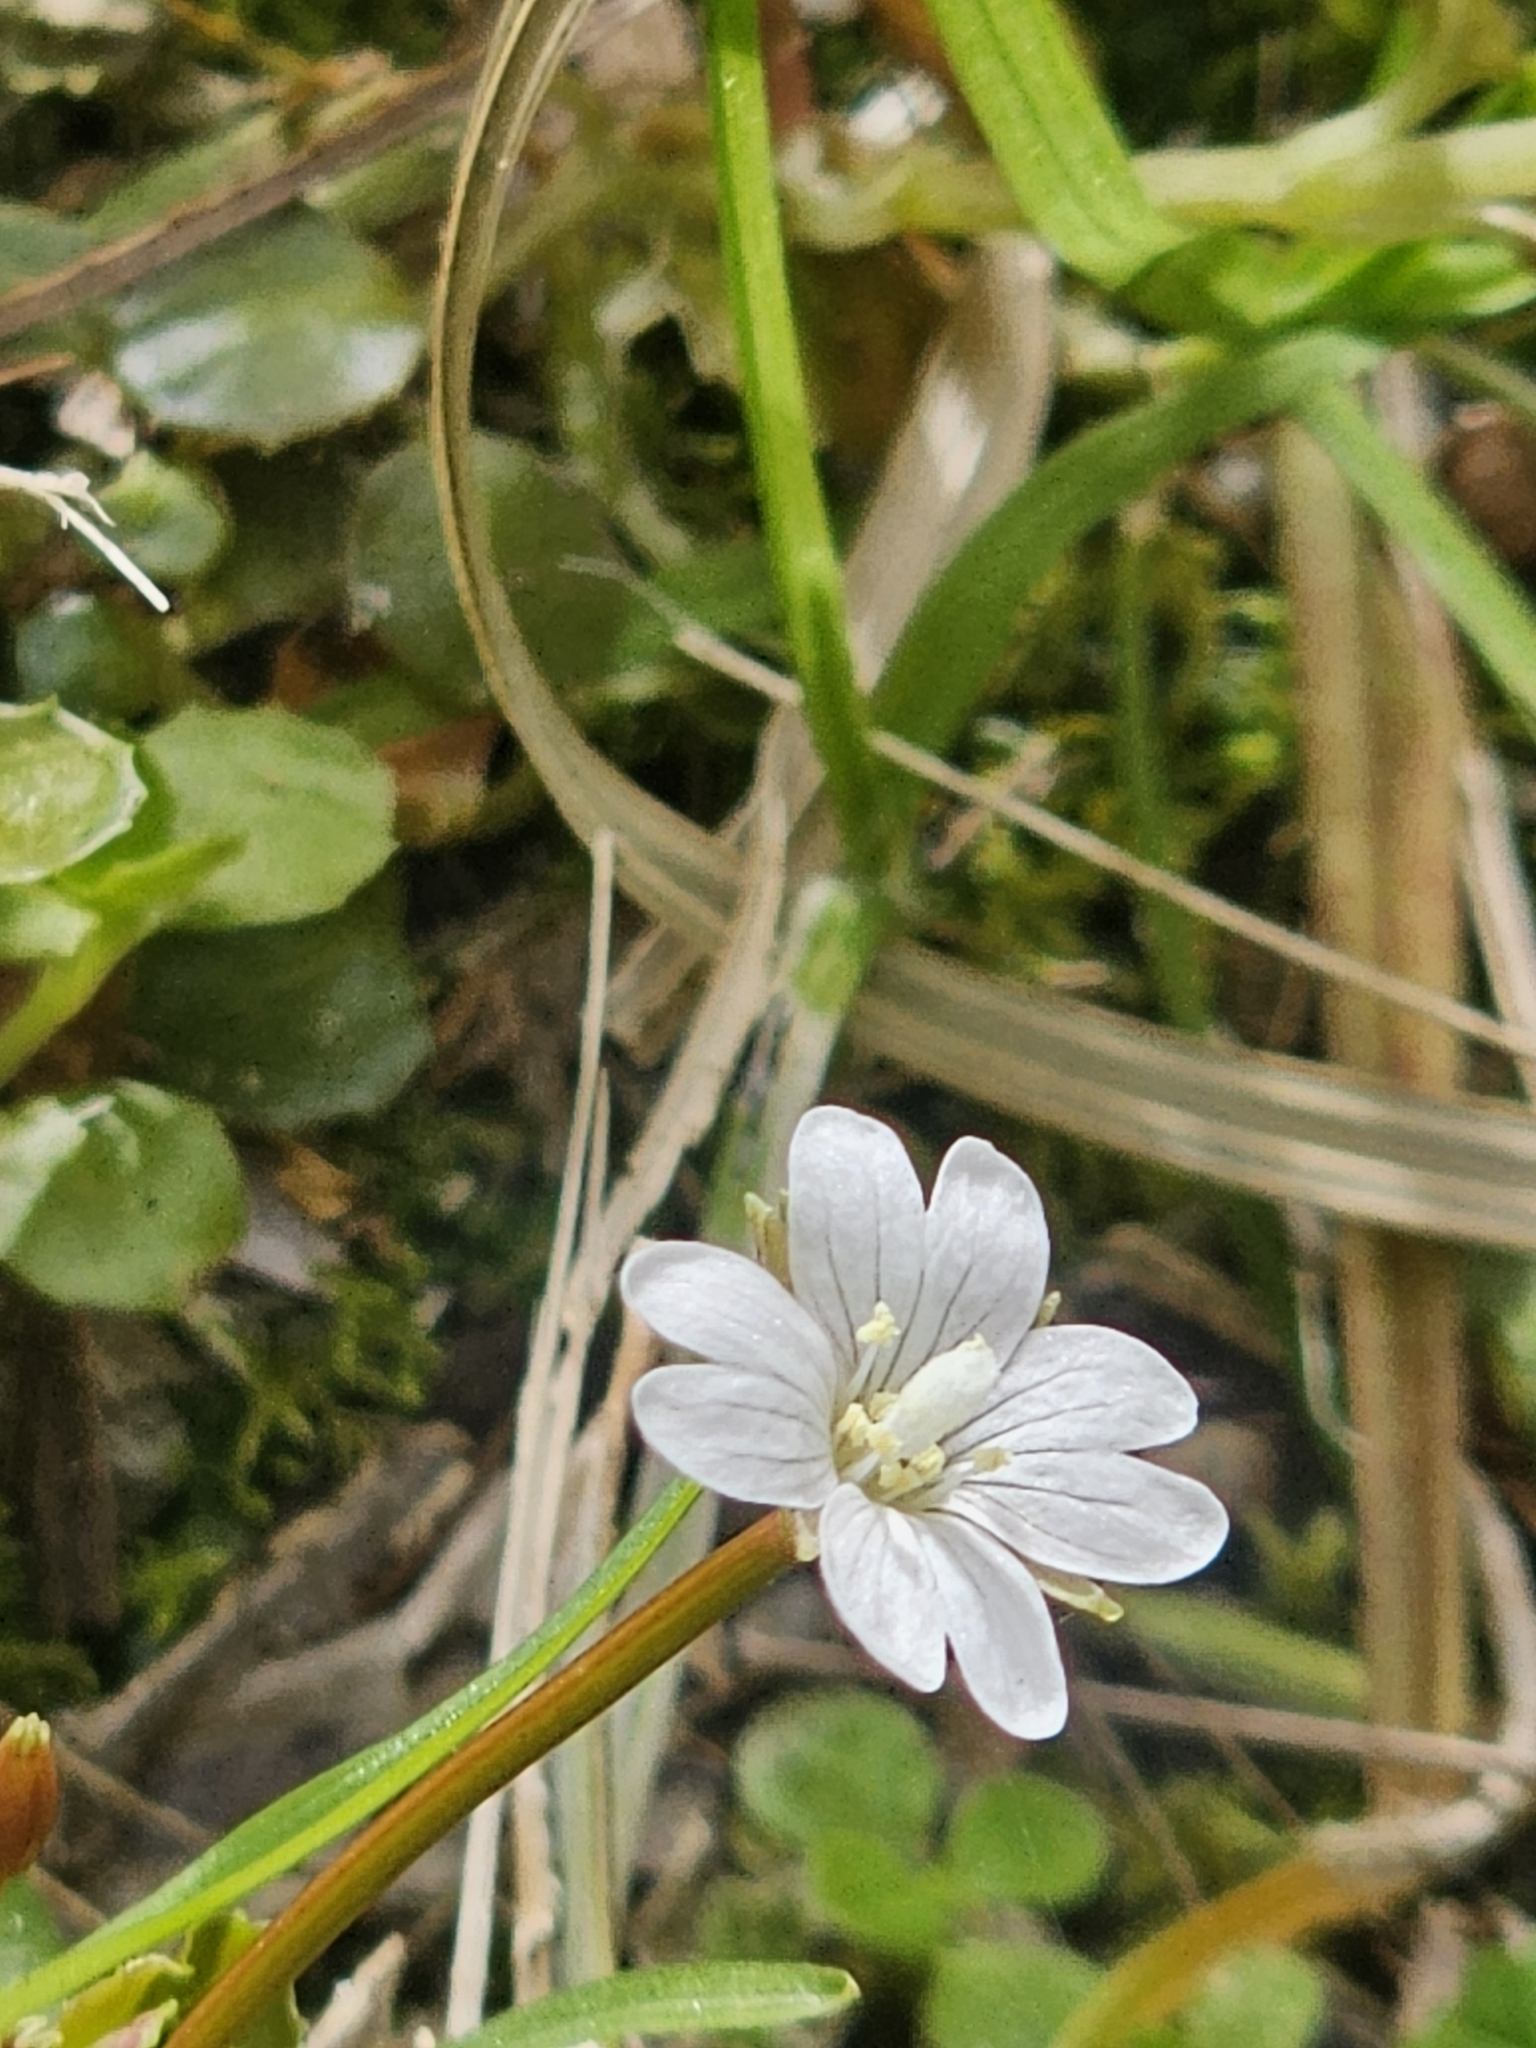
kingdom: Plantae
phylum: Tracheophyta
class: Magnoliopsida
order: Myrtales
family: Onagraceae
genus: Epilobium
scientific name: Epilobium pedunculare
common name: Rockery willowherb
